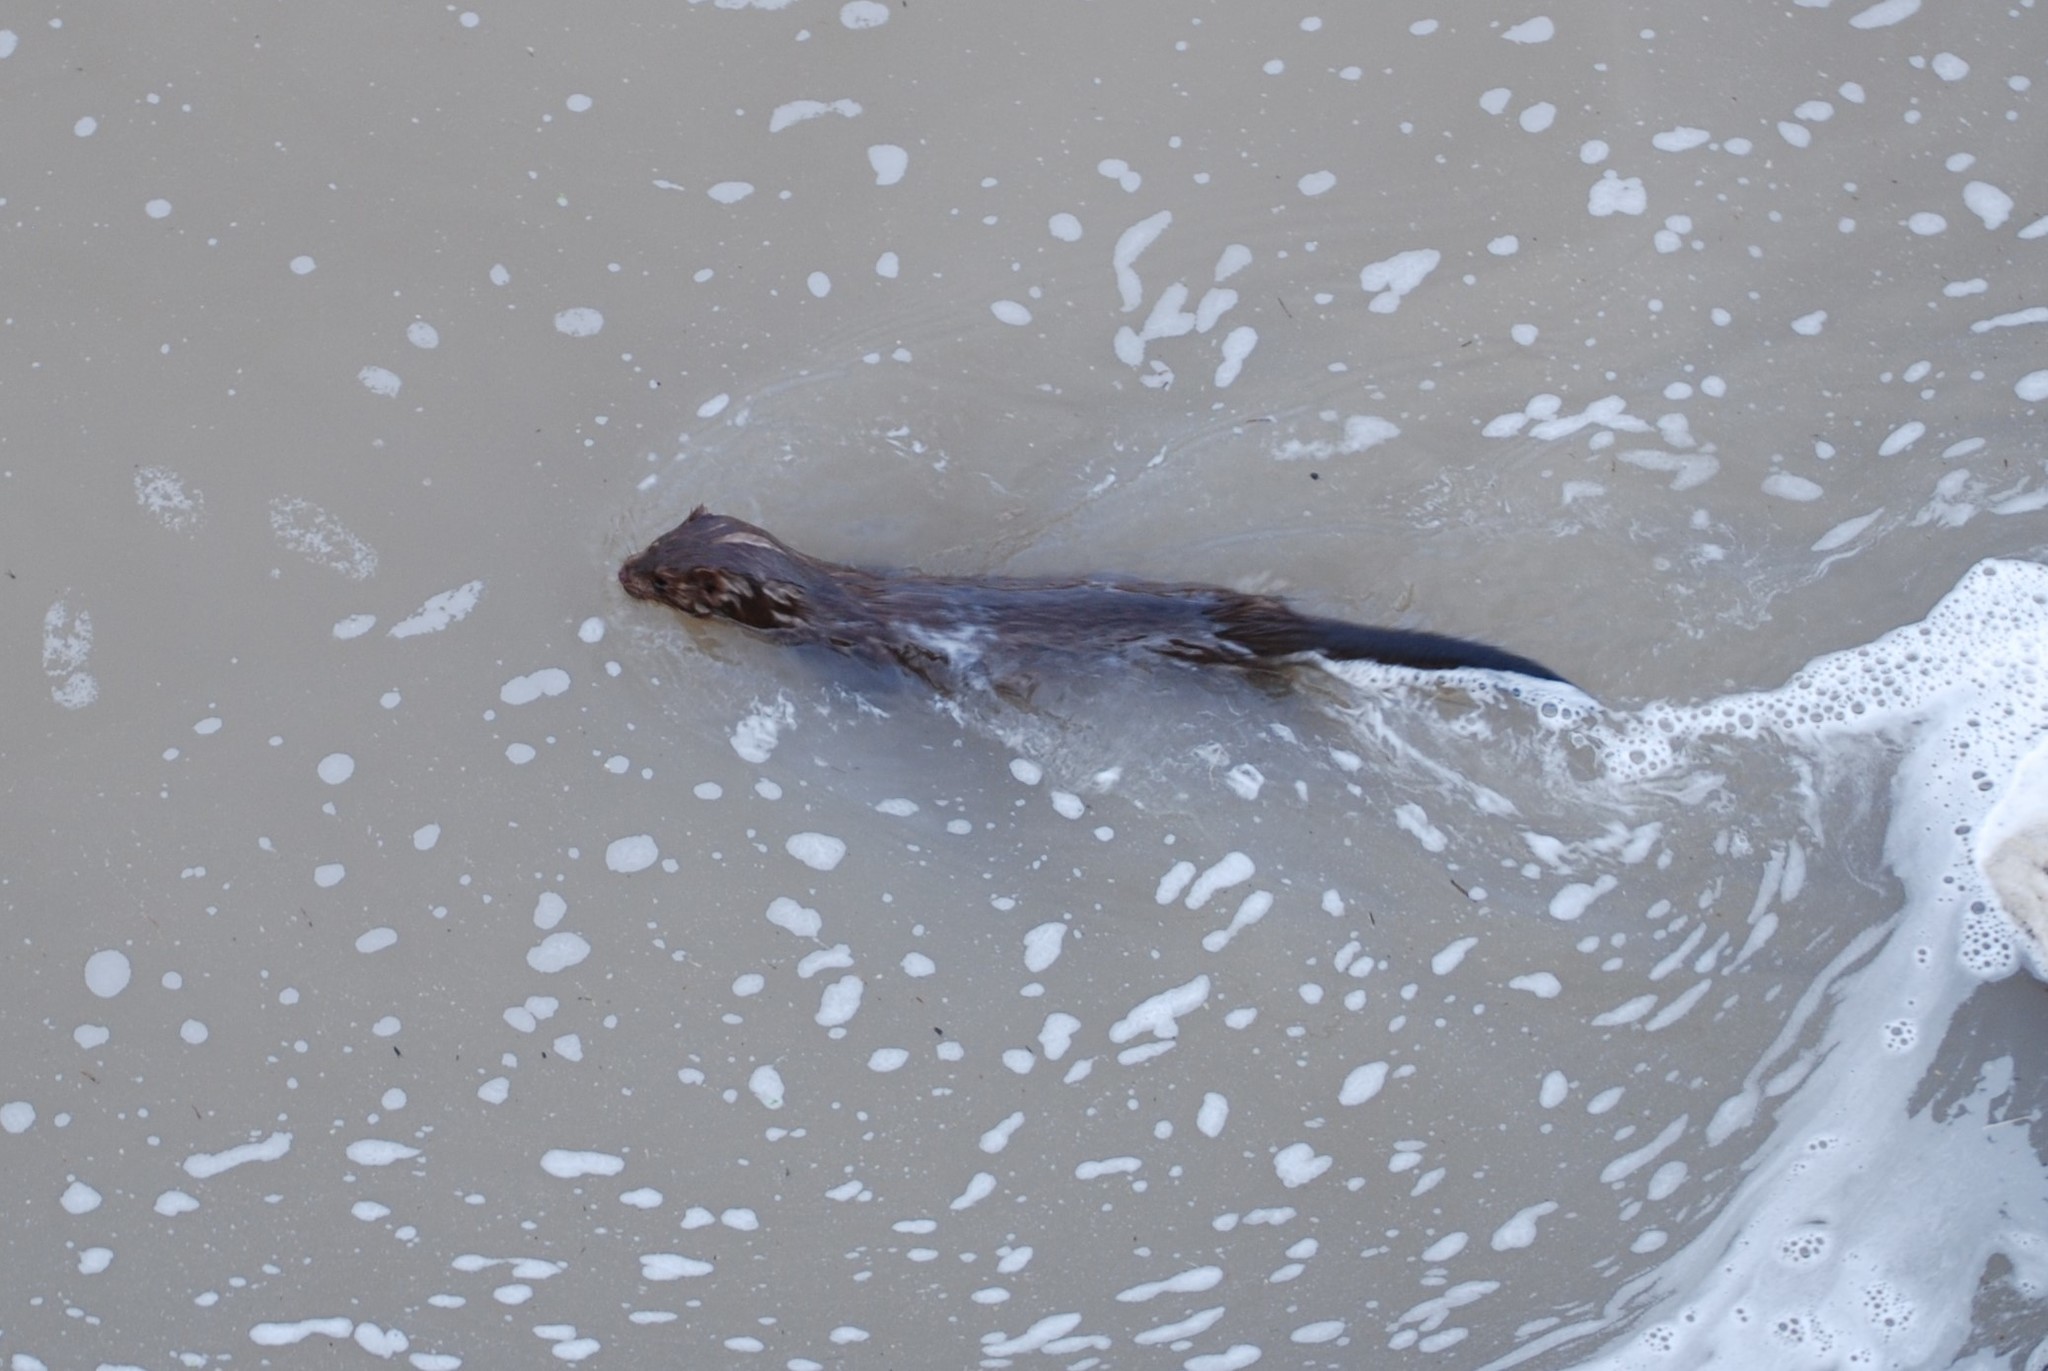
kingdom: Animalia
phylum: Chordata
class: Mammalia
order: Carnivora
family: Mustelidae
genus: Mustela
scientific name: Mustela
